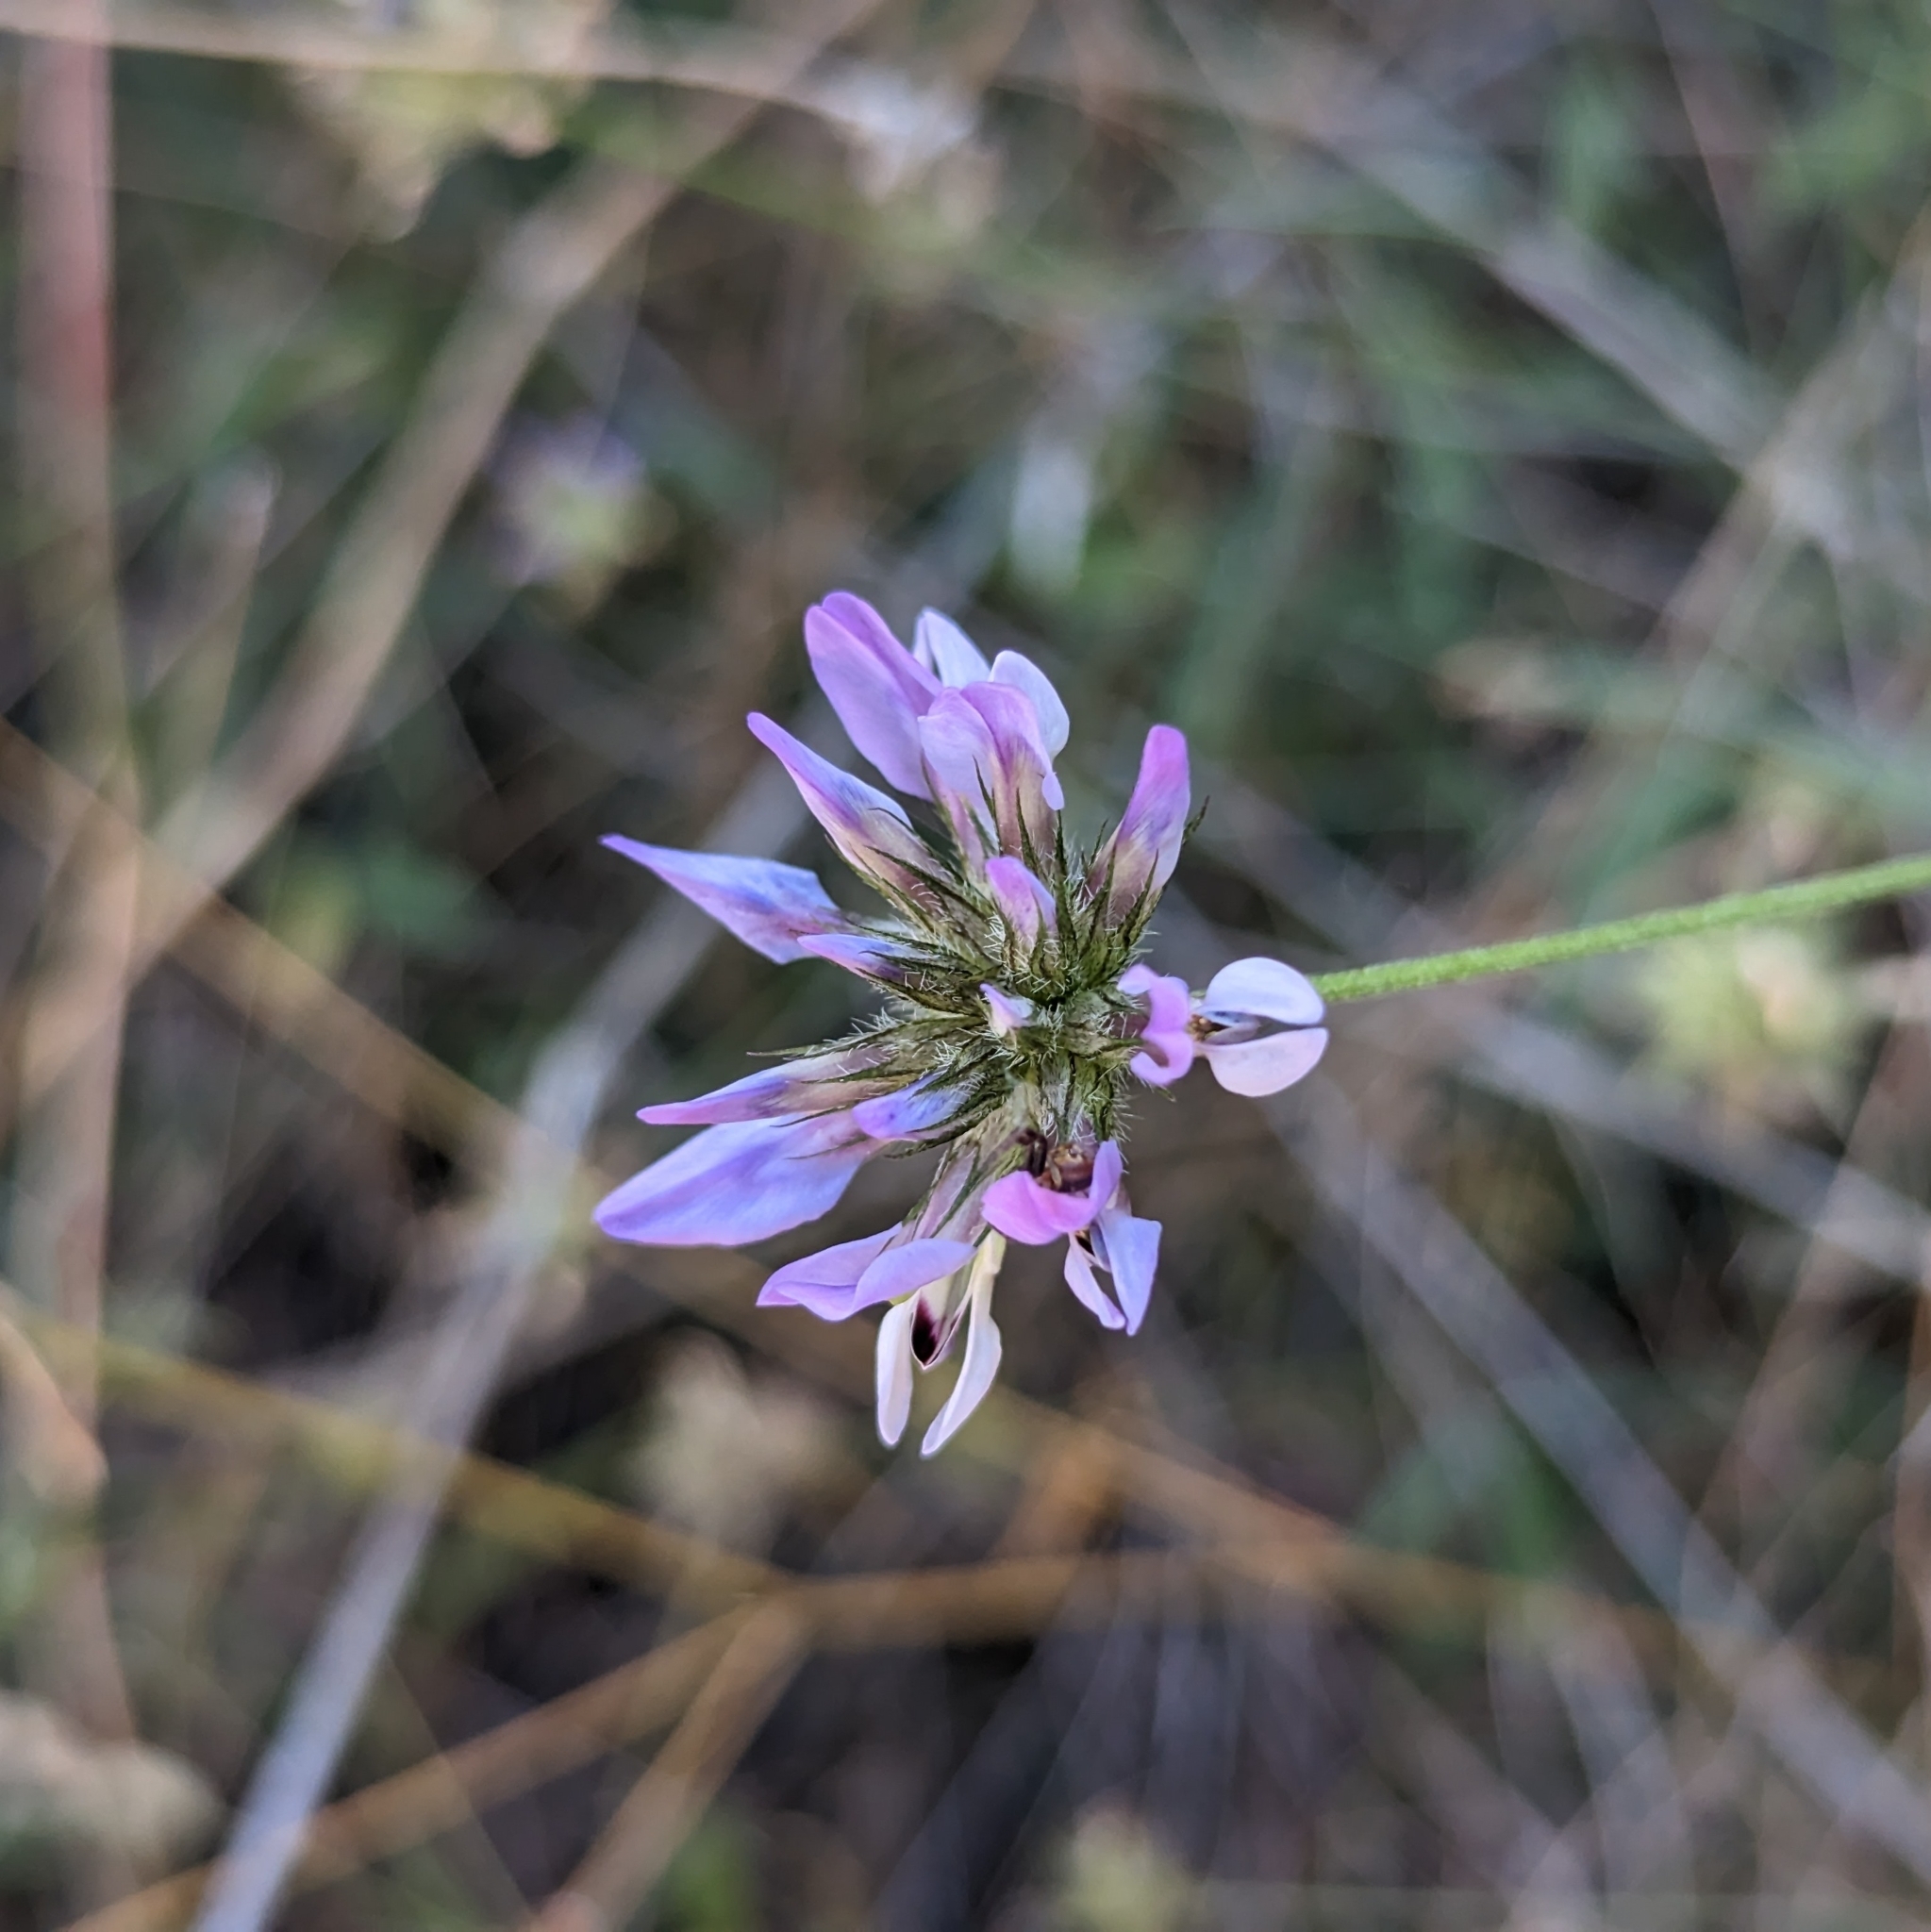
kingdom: Plantae
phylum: Tracheophyta
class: Magnoliopsida
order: Fabales
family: Fabaceae
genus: Bituminaria
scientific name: Bituminaria bituminosa
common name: Arabian pea
